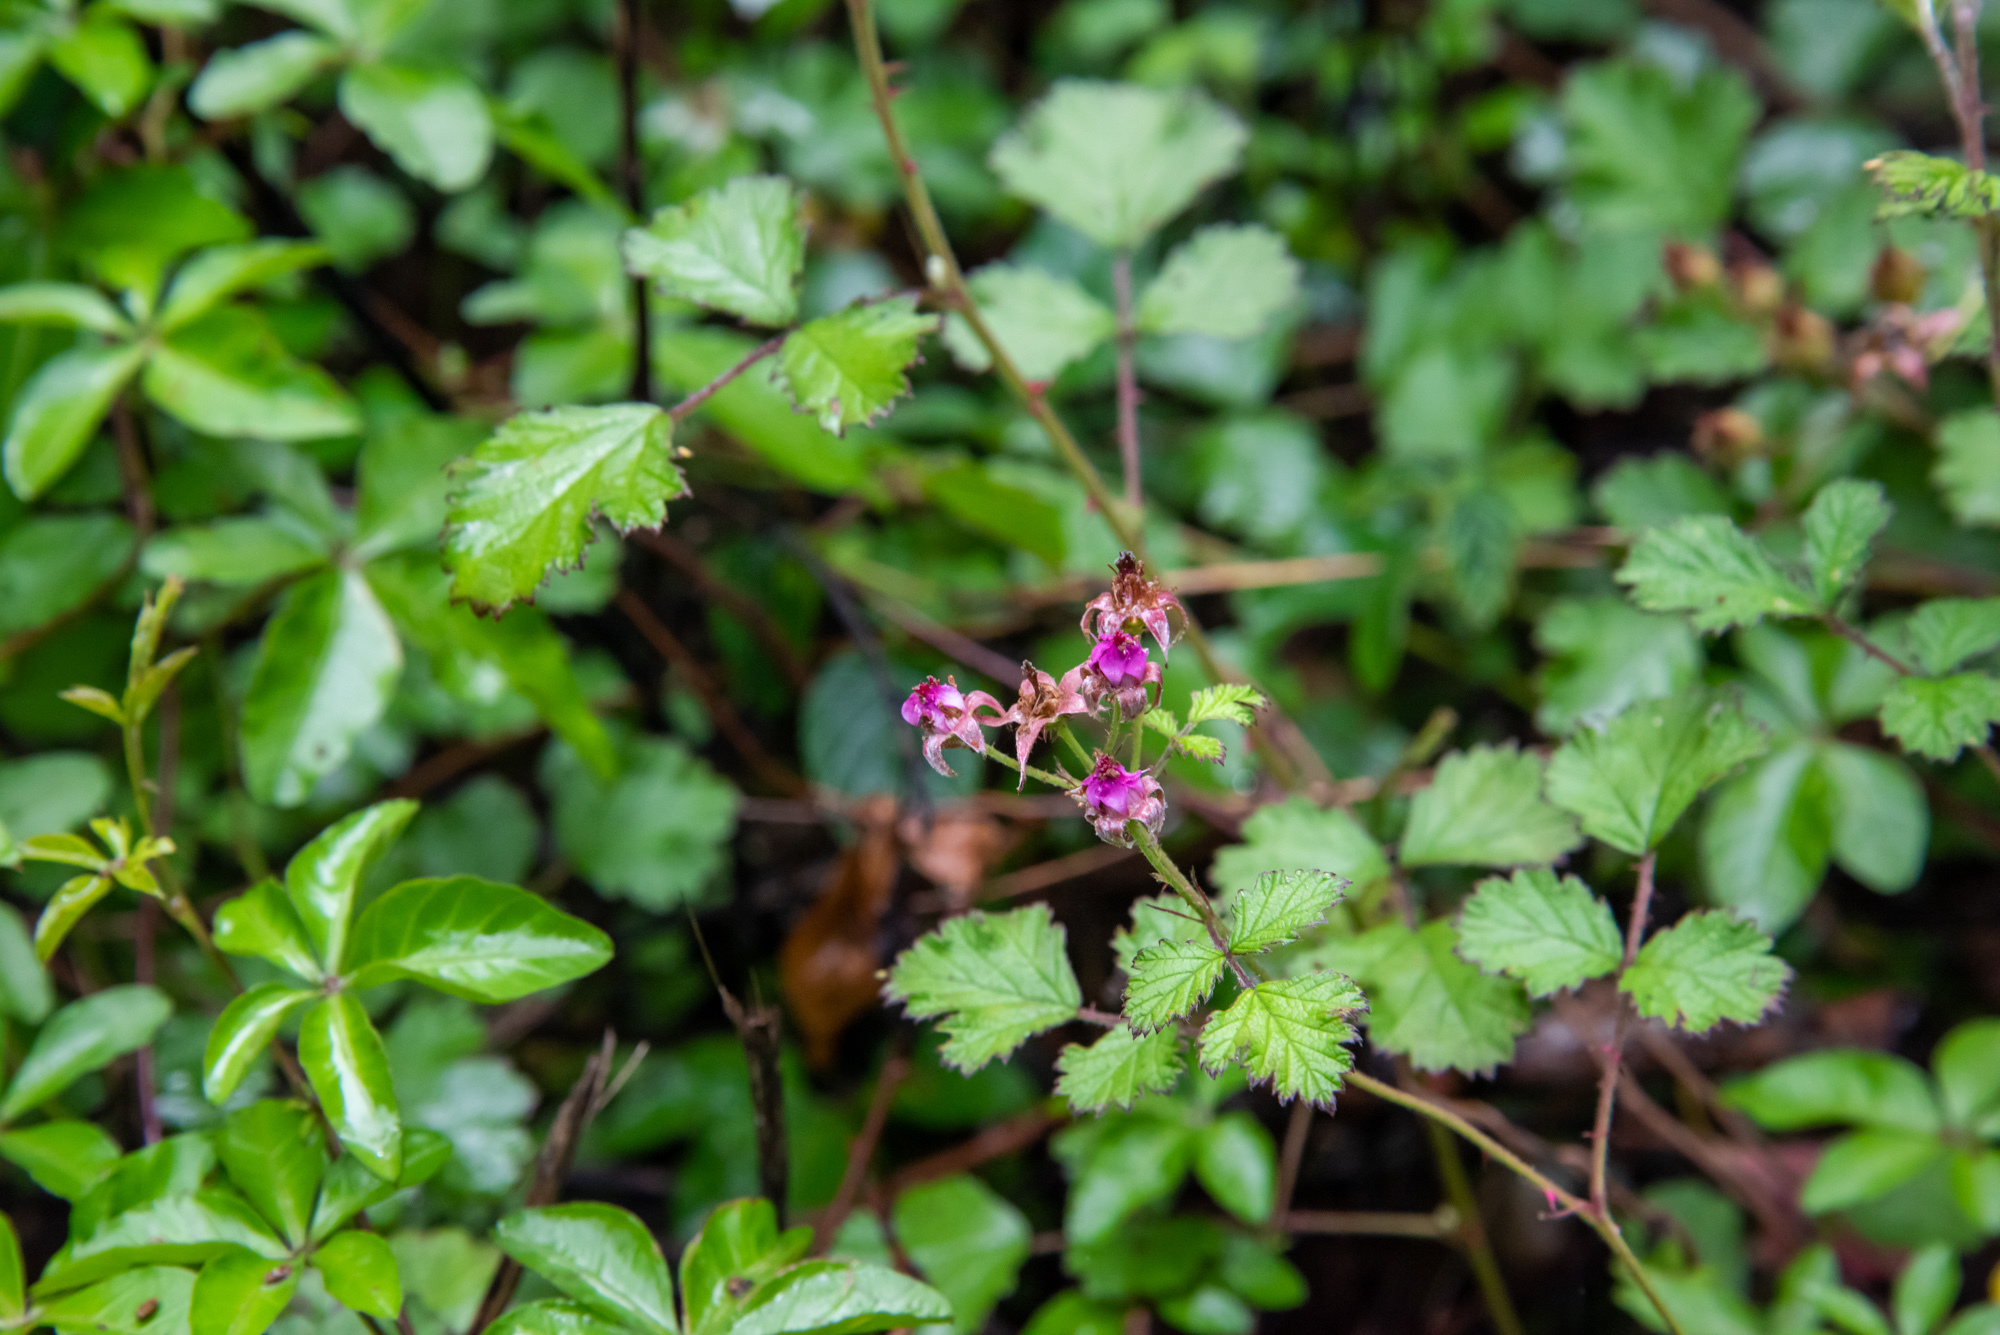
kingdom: Plantae
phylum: Tracheophyta
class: Magnoliopsida
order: Rosales
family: Rosaceae
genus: Rubus
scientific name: Rubus parvifolius
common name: Threeleaf blackberry
